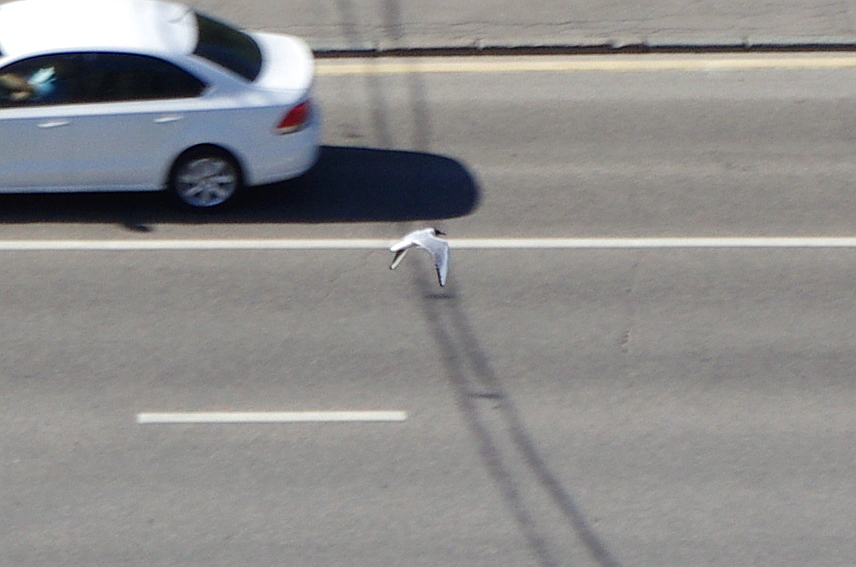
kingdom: Animalia
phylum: Chordata
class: Aves
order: Charadriiformes
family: Laridae
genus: Chroicocephalus
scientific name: Chroicocephalus ridibundus
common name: Black-headed gull
